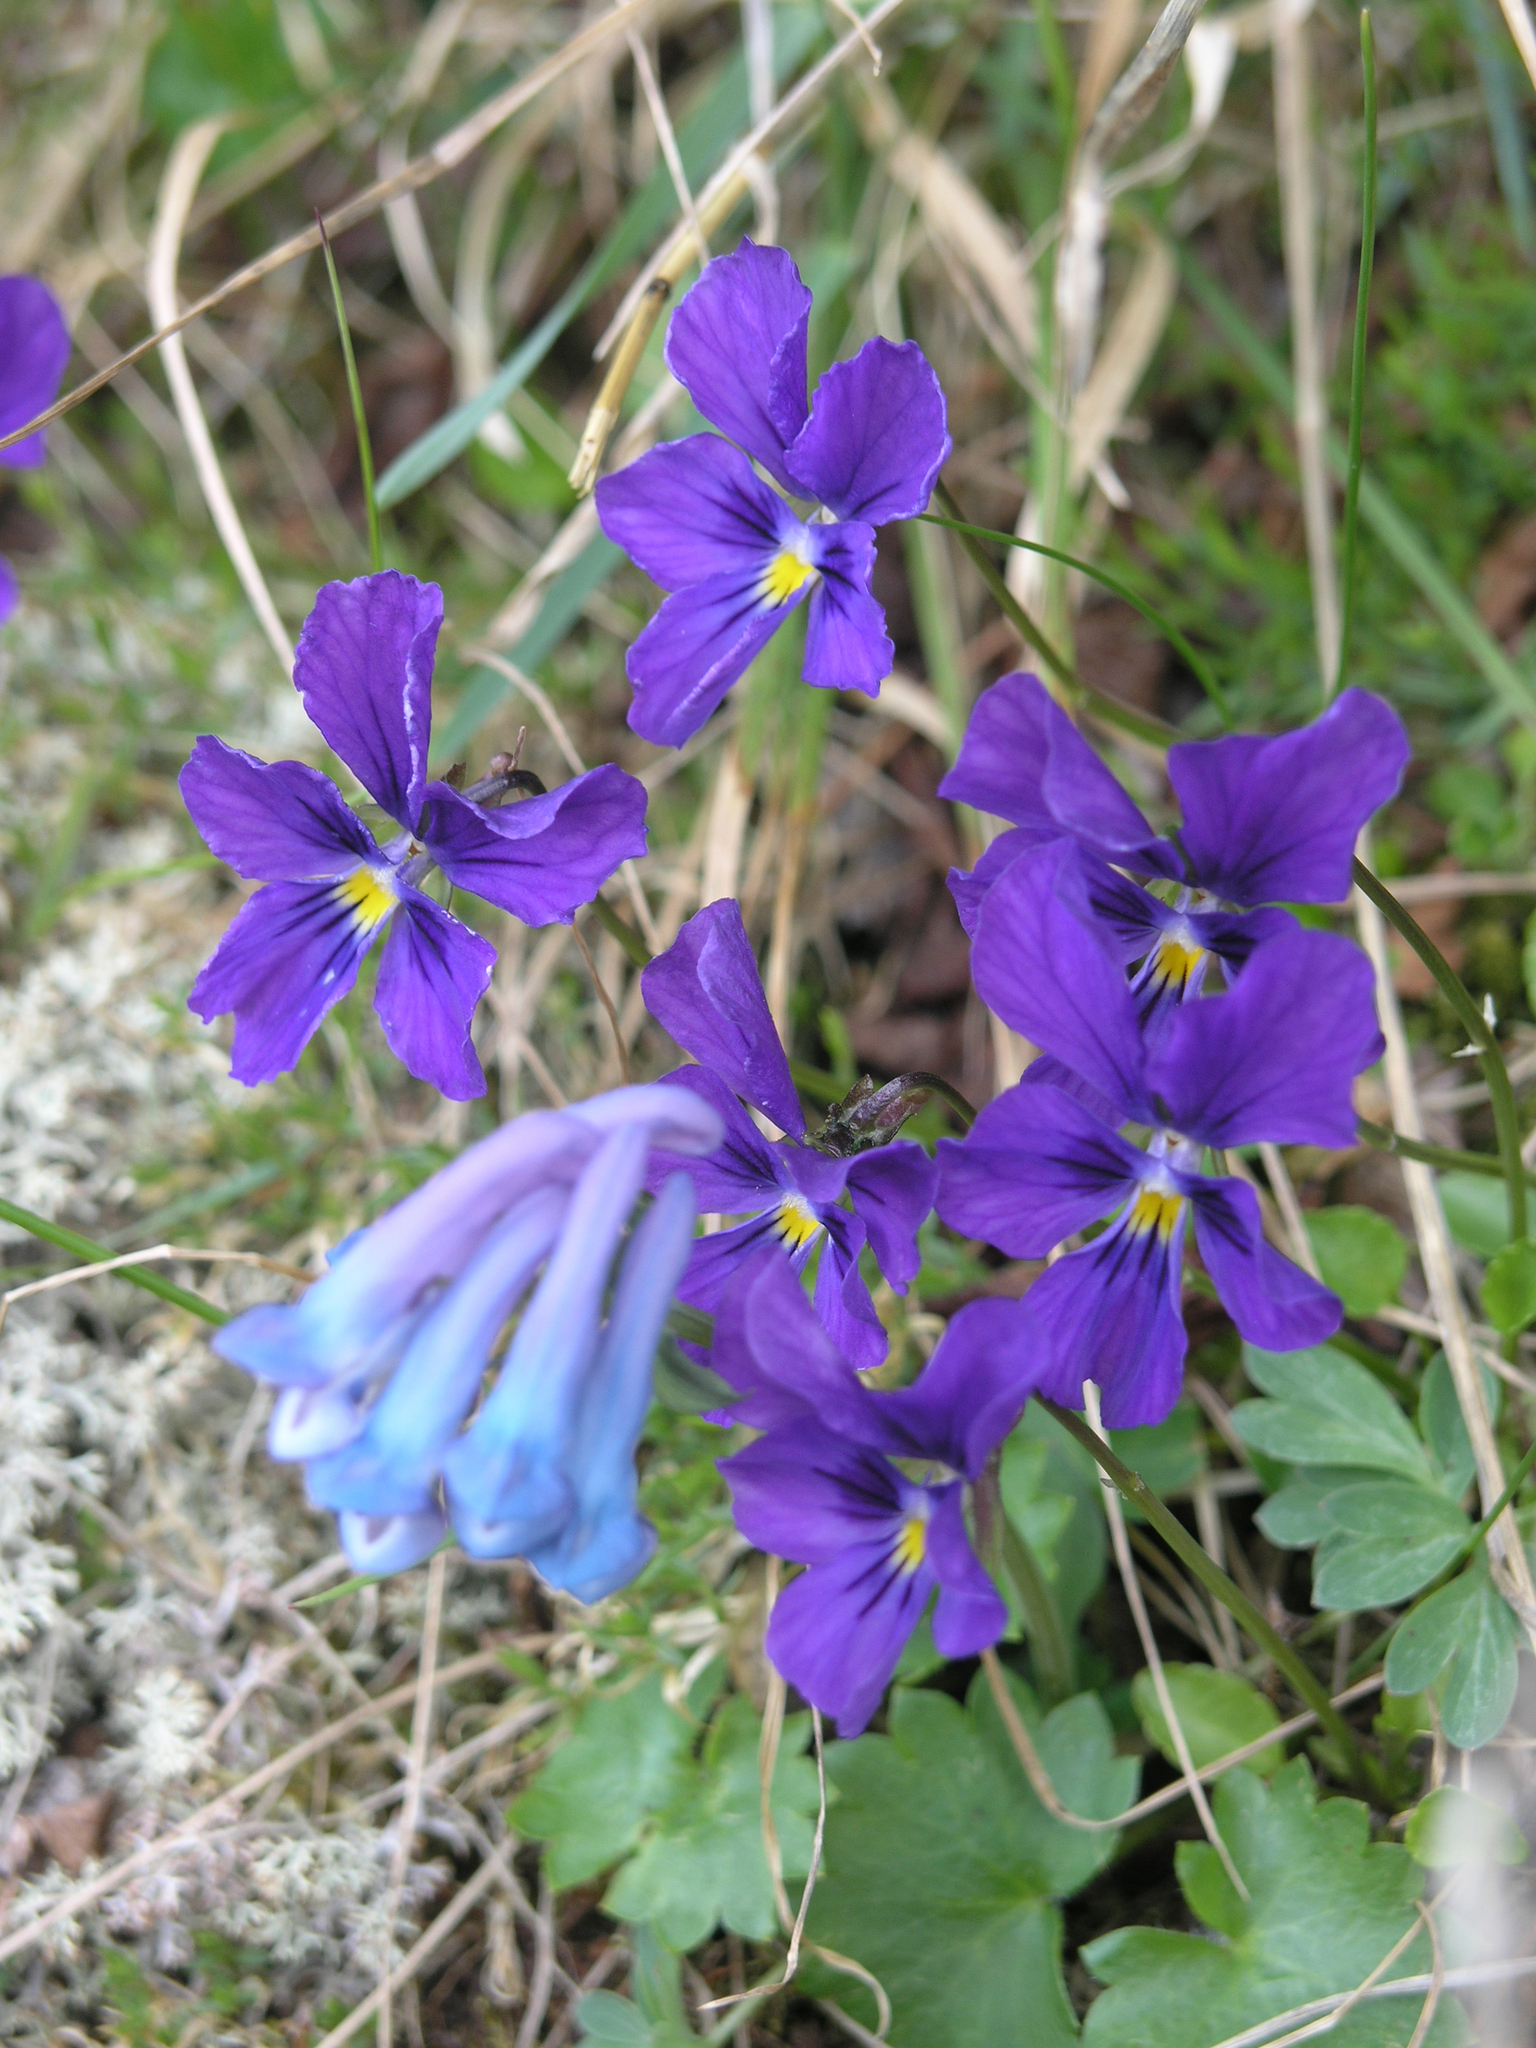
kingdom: Plantae
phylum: Tracheophyta
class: Magnoliopsida
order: Malpighiales
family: Violaceae
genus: Viola
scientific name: Viola altaica
